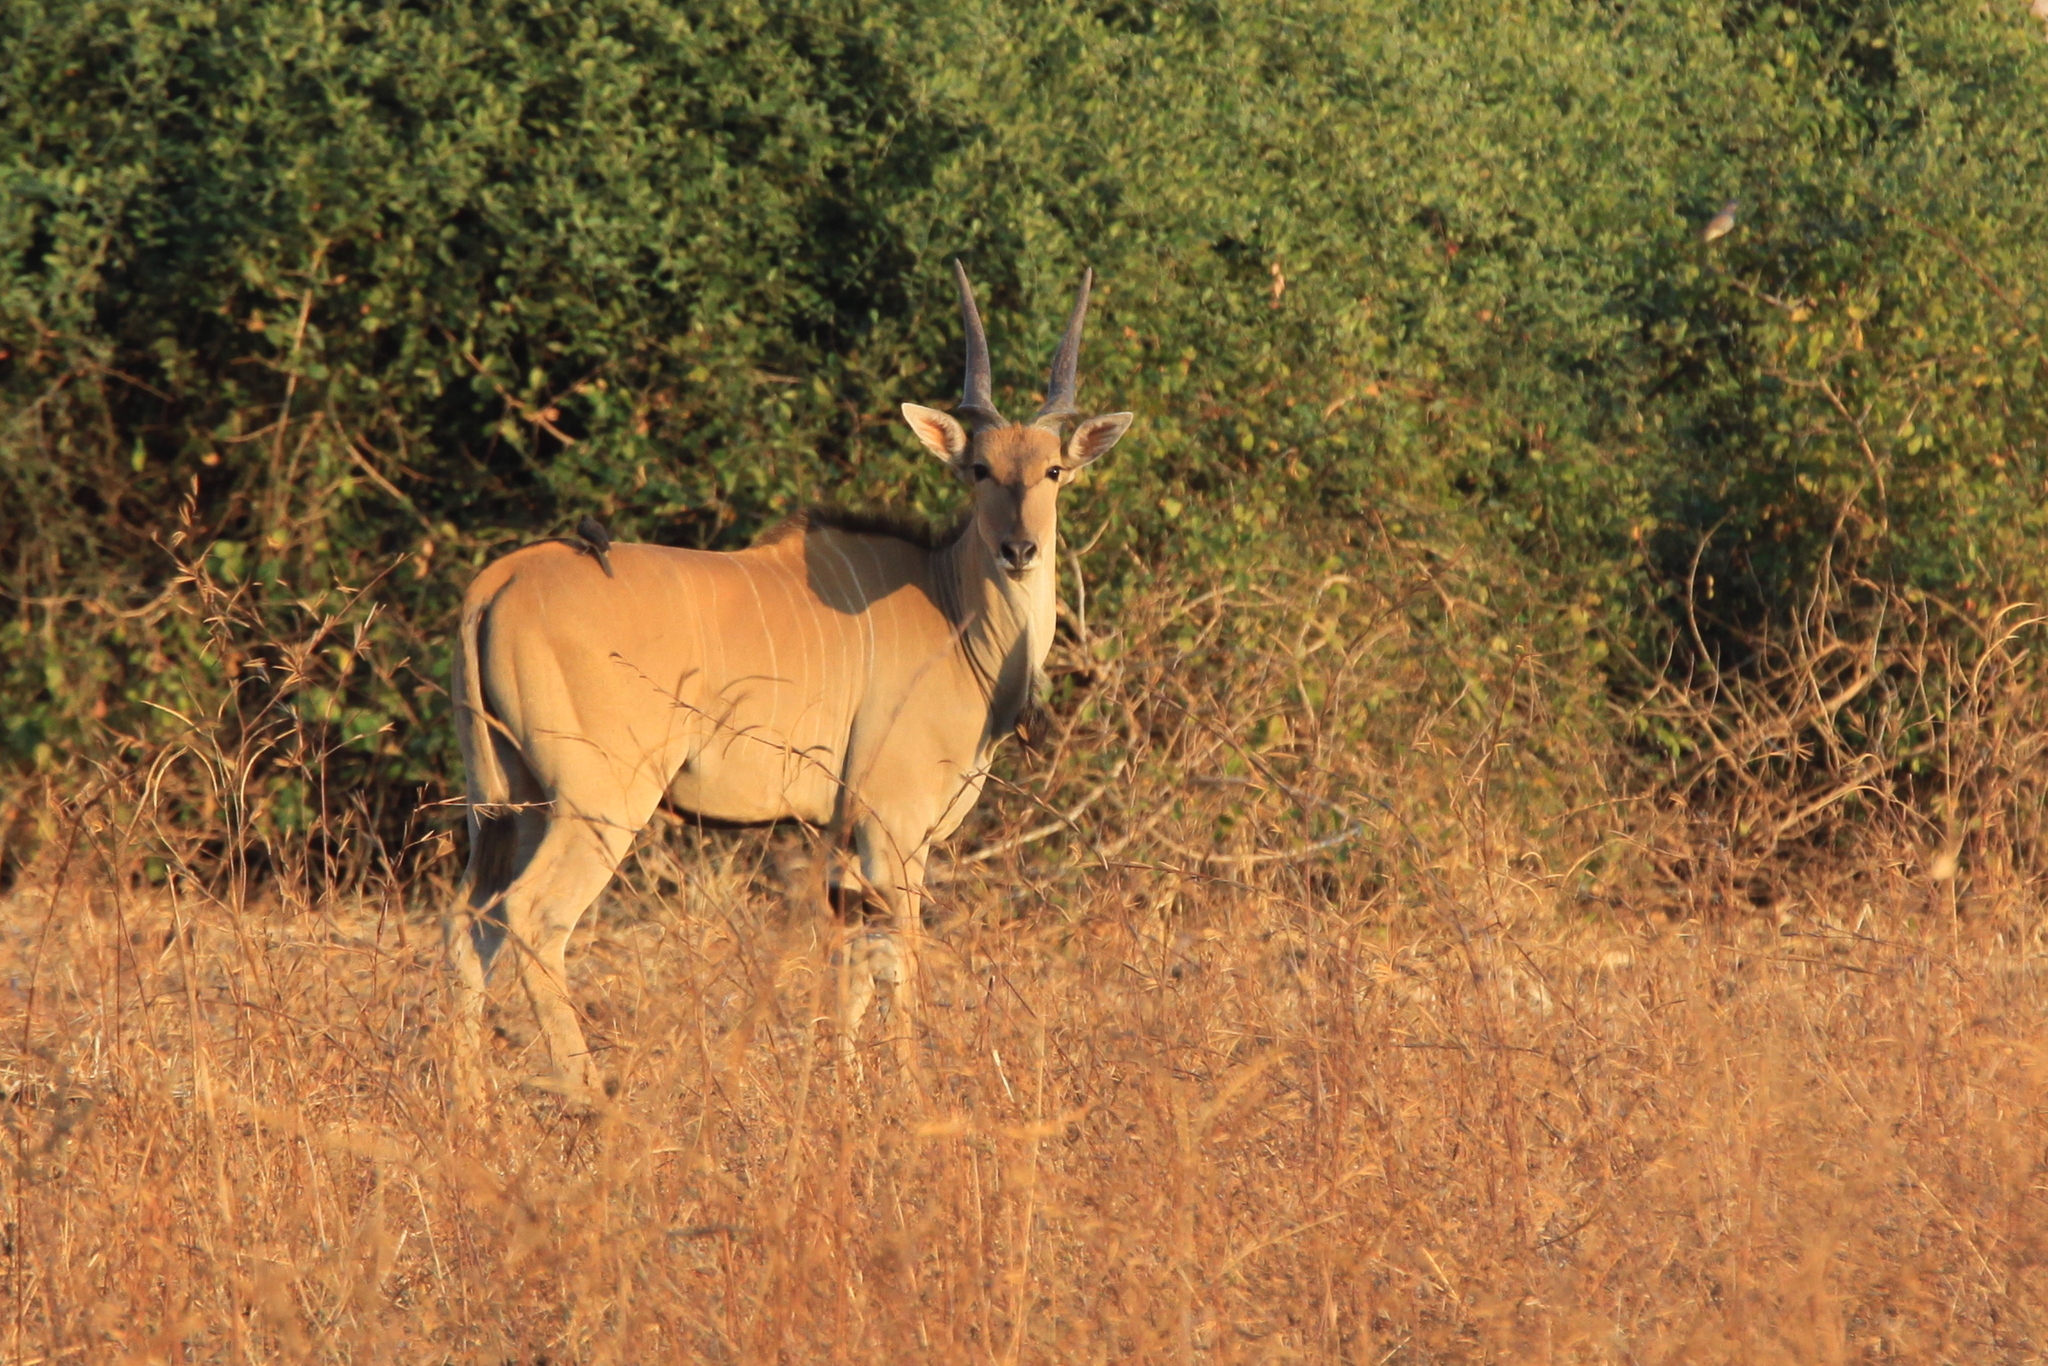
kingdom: Animalia
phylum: Chordata
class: Mammalia
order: Artiodactyla
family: Bovidae
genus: Taurotragus
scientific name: Taurotragus oryx
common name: Common eland
